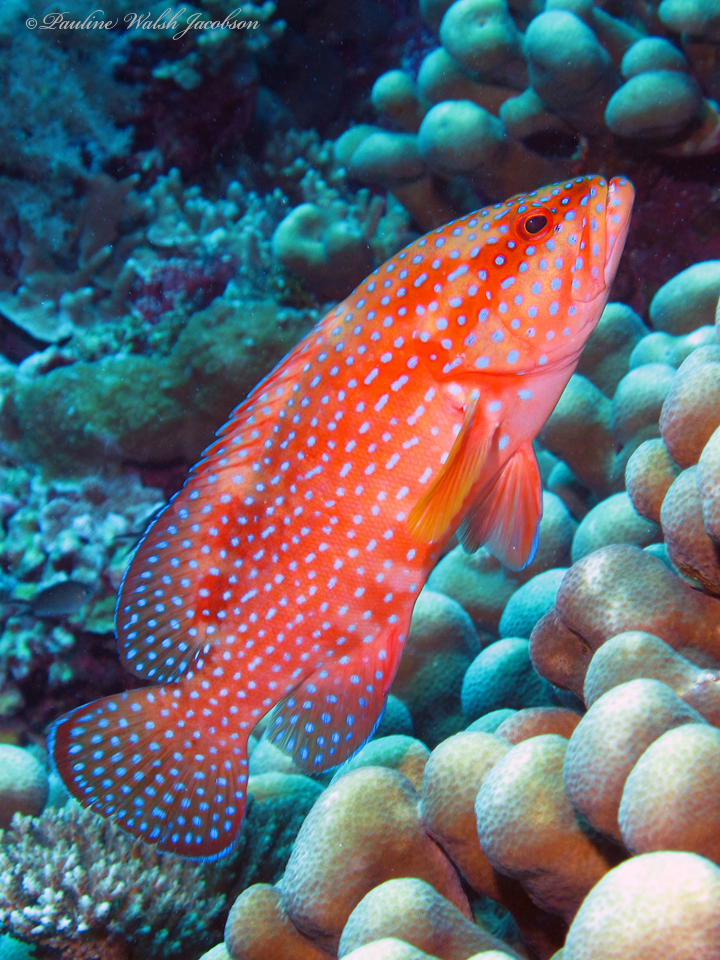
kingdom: Animalia
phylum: Chordata
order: Perciformes
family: Serranidae
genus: Cephalopholis
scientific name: Cephalopholis miniata
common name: Coral hind
